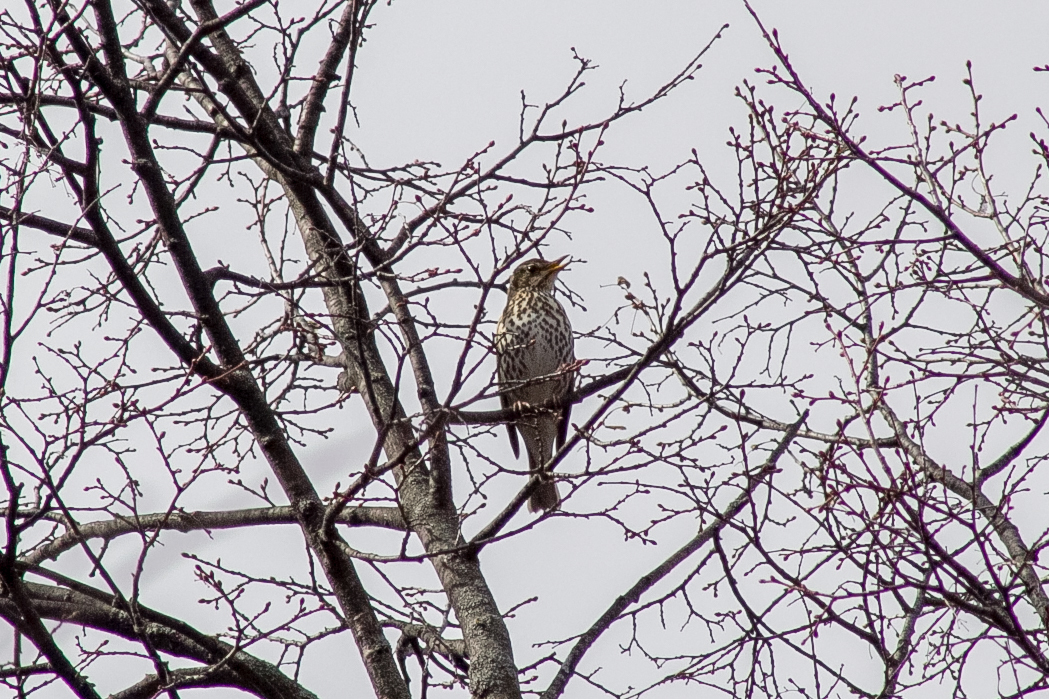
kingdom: Animalia
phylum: Chordata
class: Aves
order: Passeriformes
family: Turdidae
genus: Turdus
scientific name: Turdus philomelos
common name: Song thrush
